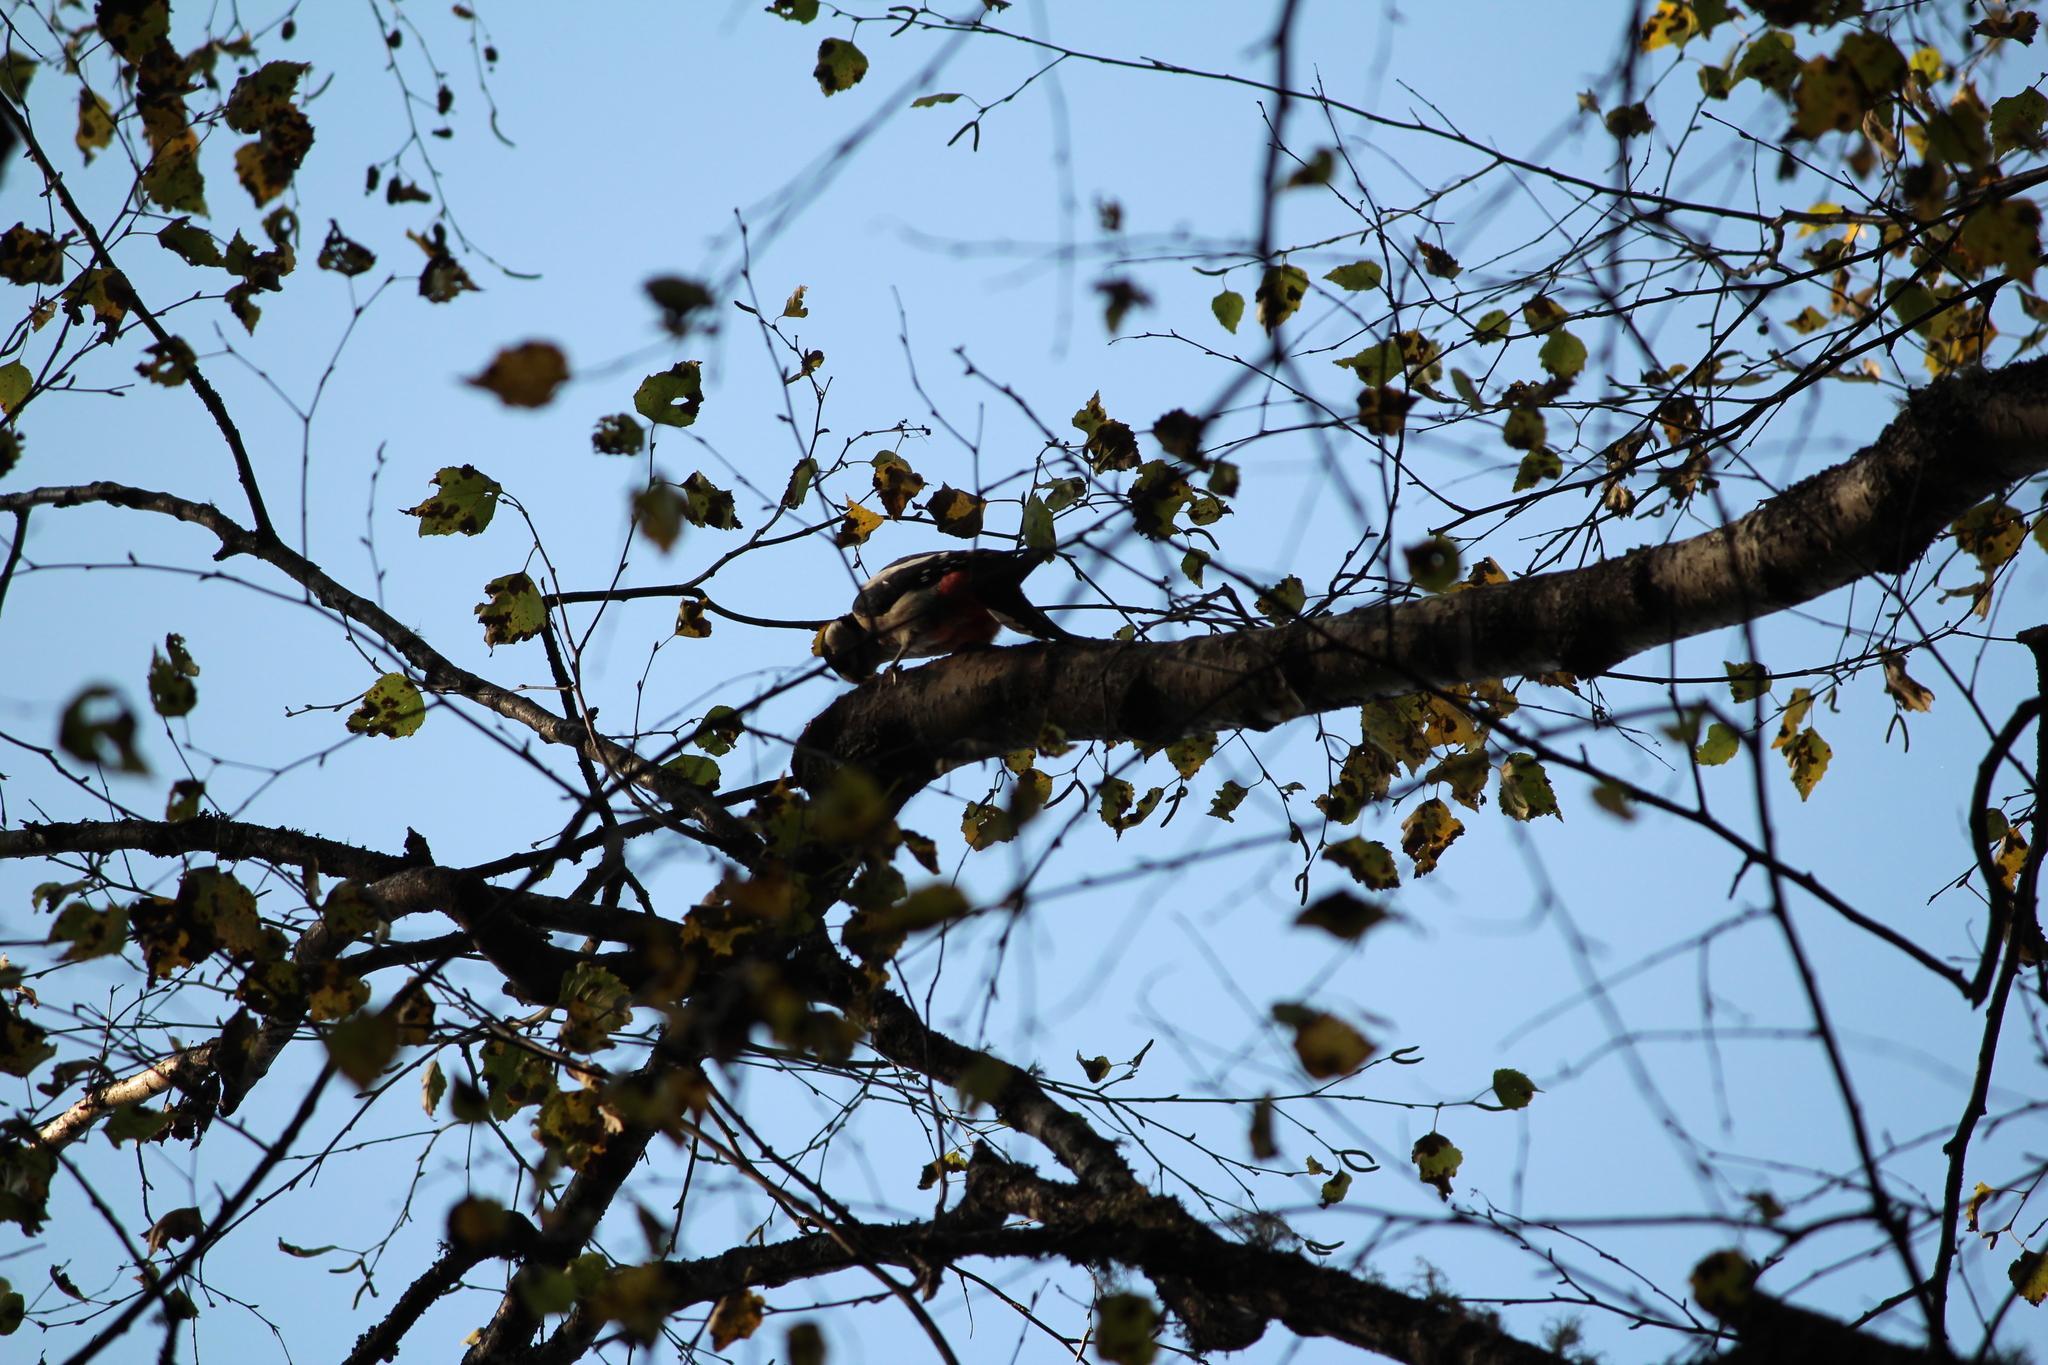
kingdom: Animalia
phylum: Chordata
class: Aves
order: Piciformes
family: Picidae
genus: Dendrocopos
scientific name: Dendrocopos major
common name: Great spotted woodpecker
